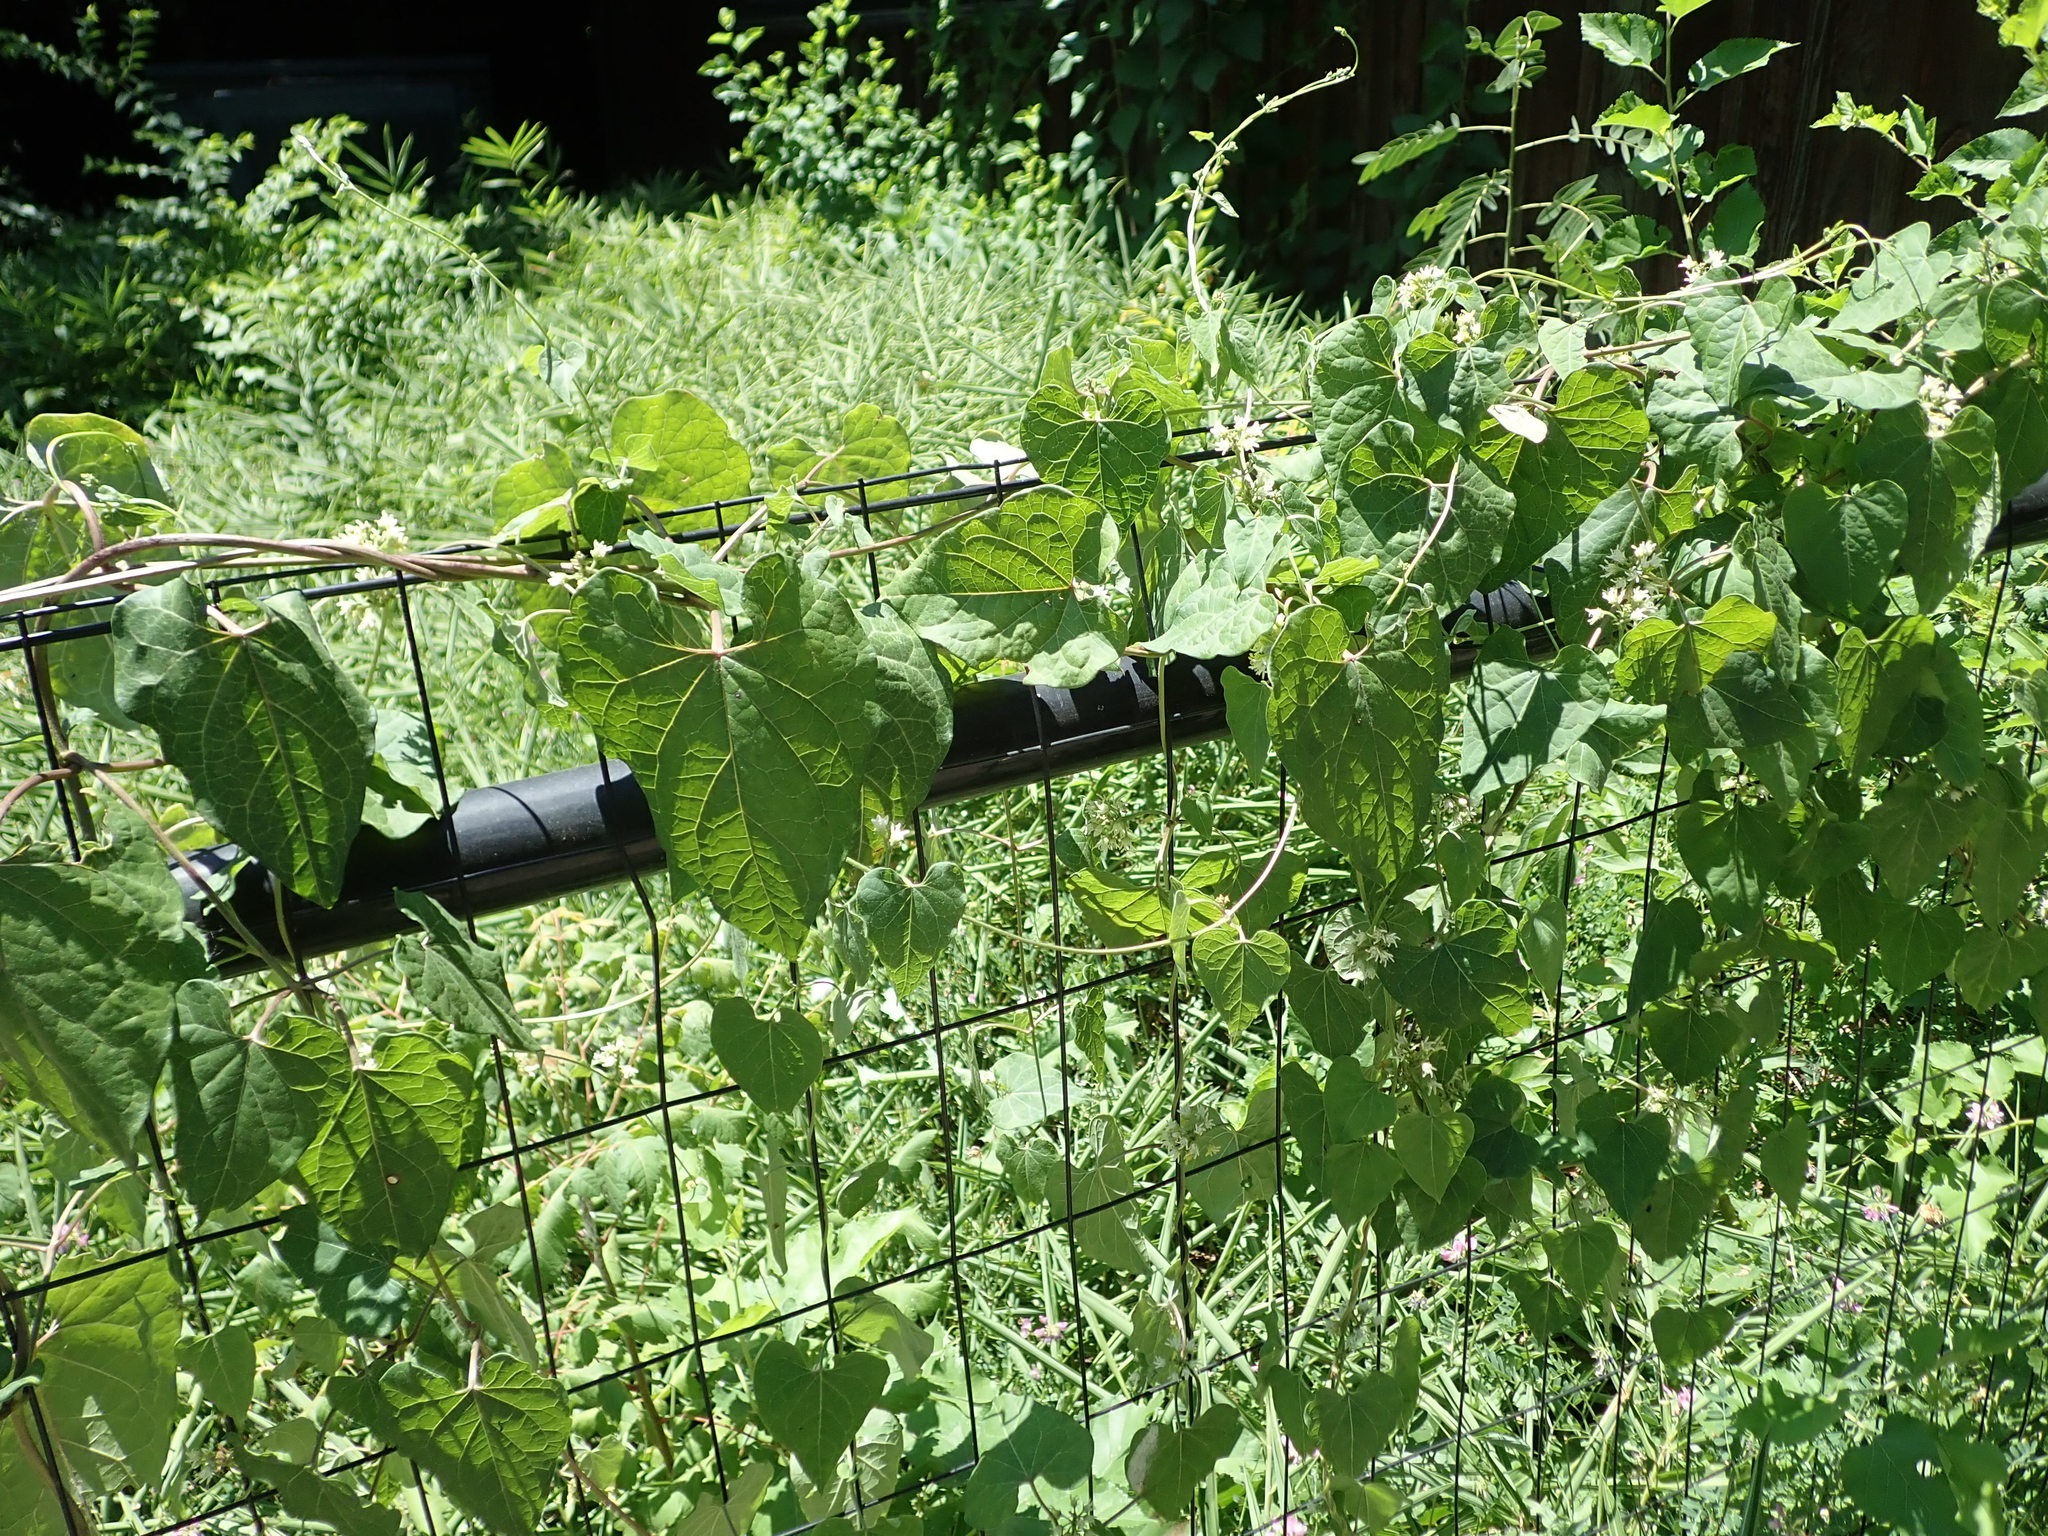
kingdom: Plantae
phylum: Tracheophyta
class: Magnoliopsida
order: Gentianales
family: Apocynaceae
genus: Cynanchum
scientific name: Cynanchum laeve
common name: Sandvine
